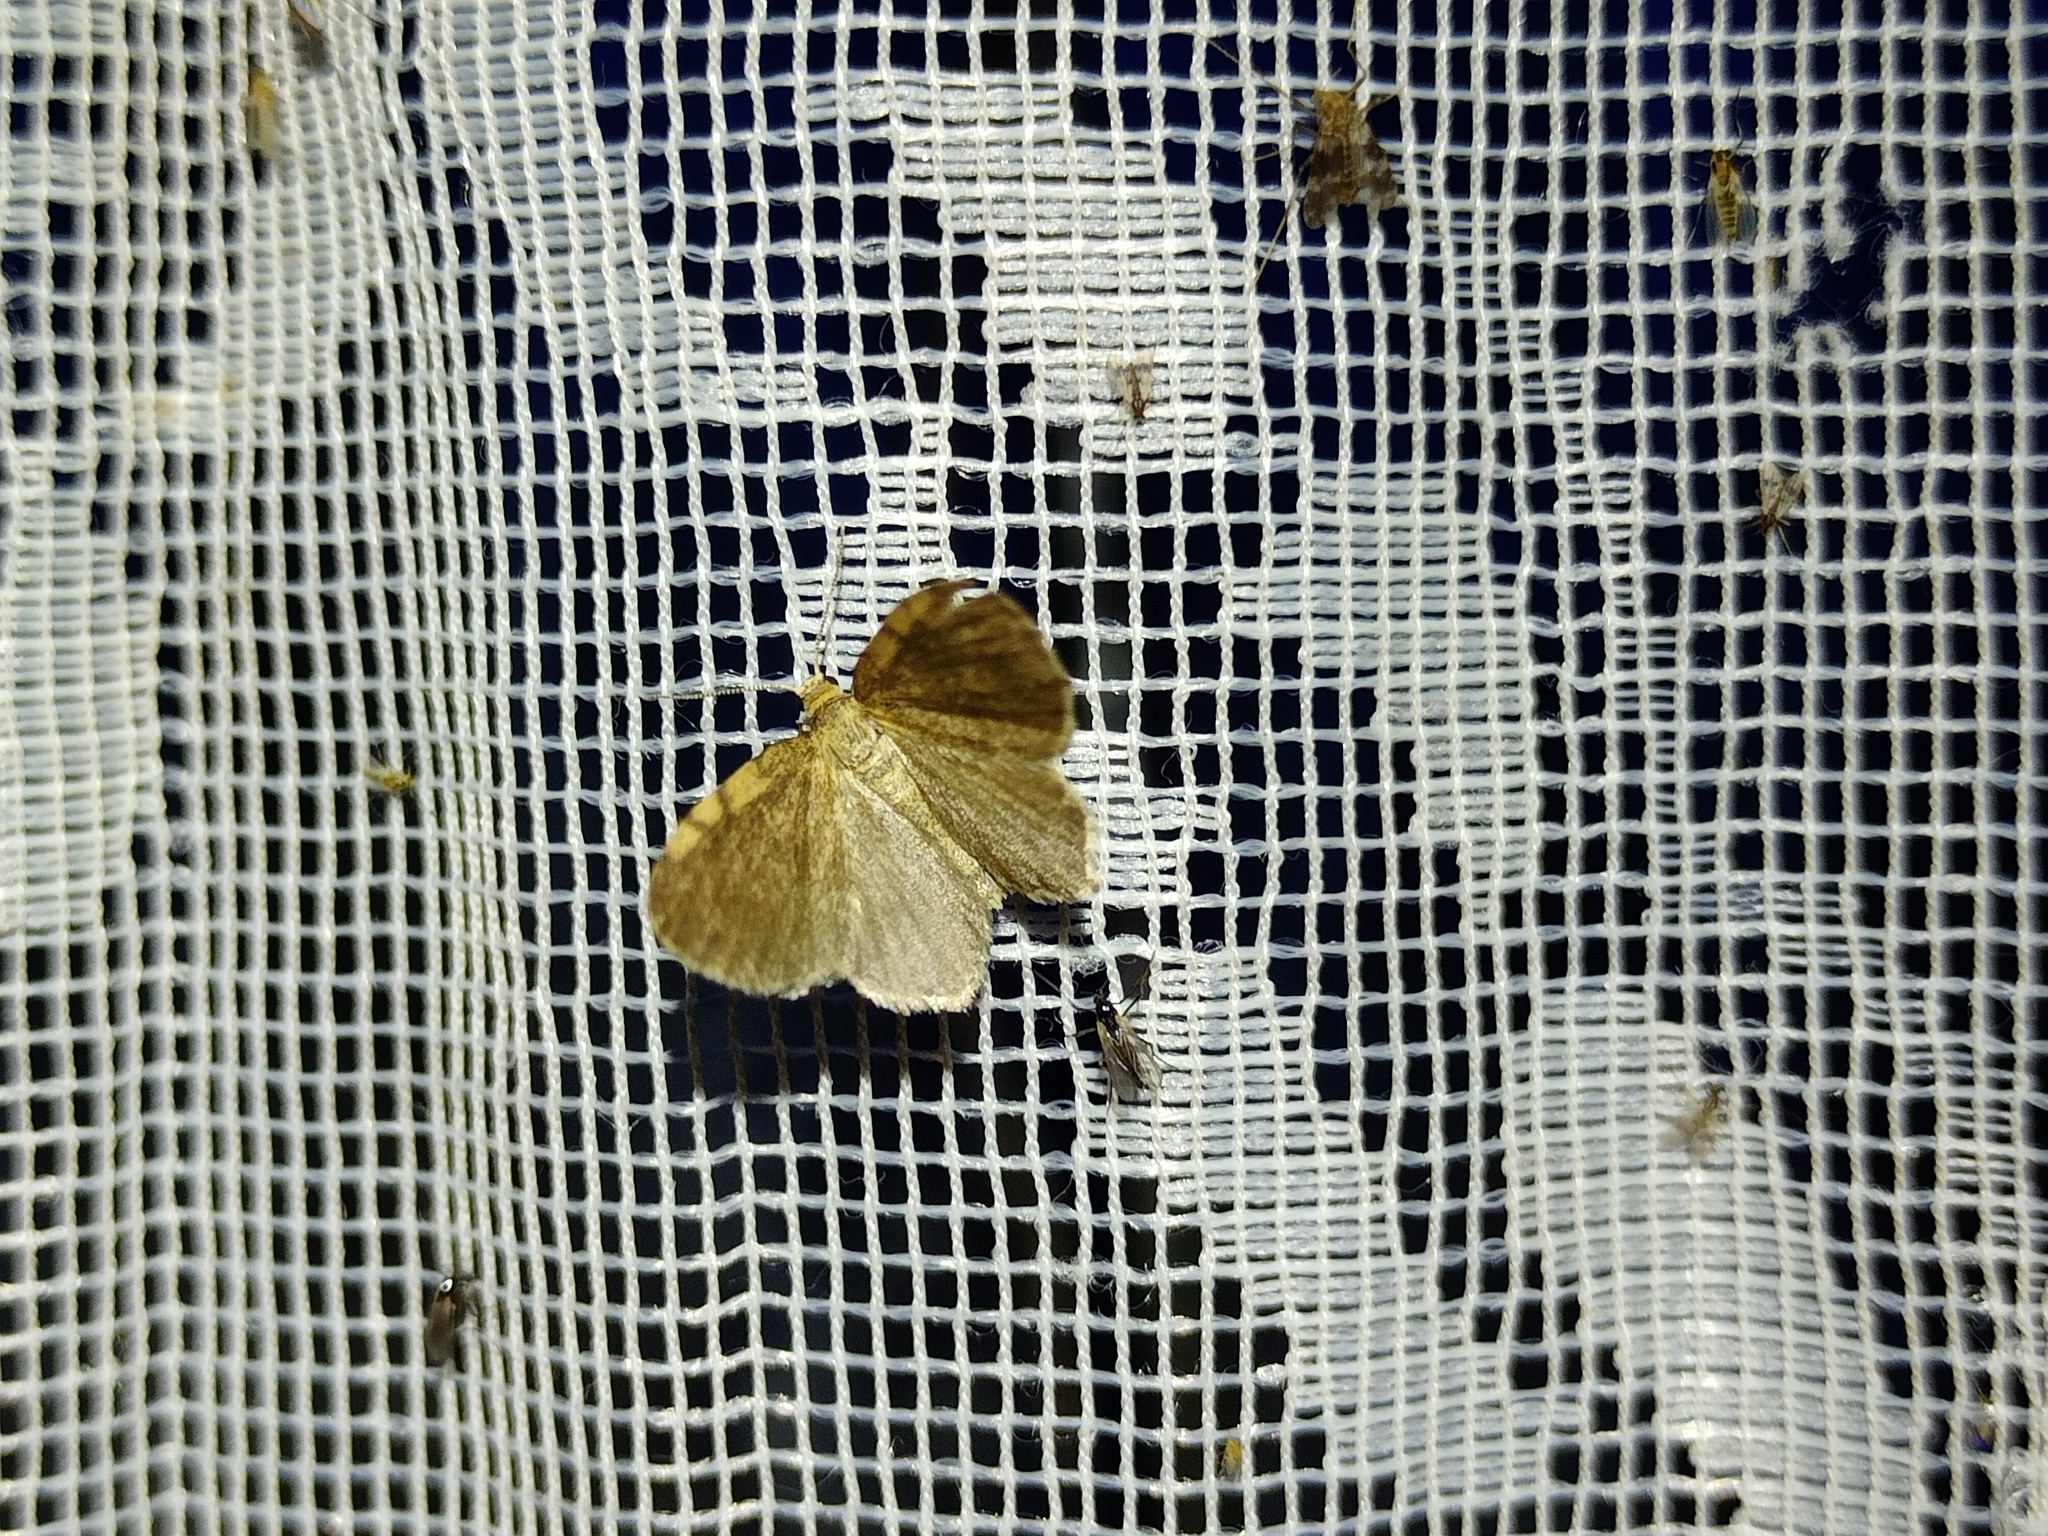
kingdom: Animalia
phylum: Arthropoda
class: Insecta
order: Lepidoptera
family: Geometridae
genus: Euchoeca
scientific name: Euchoeca nebulata
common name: Dingy shell
